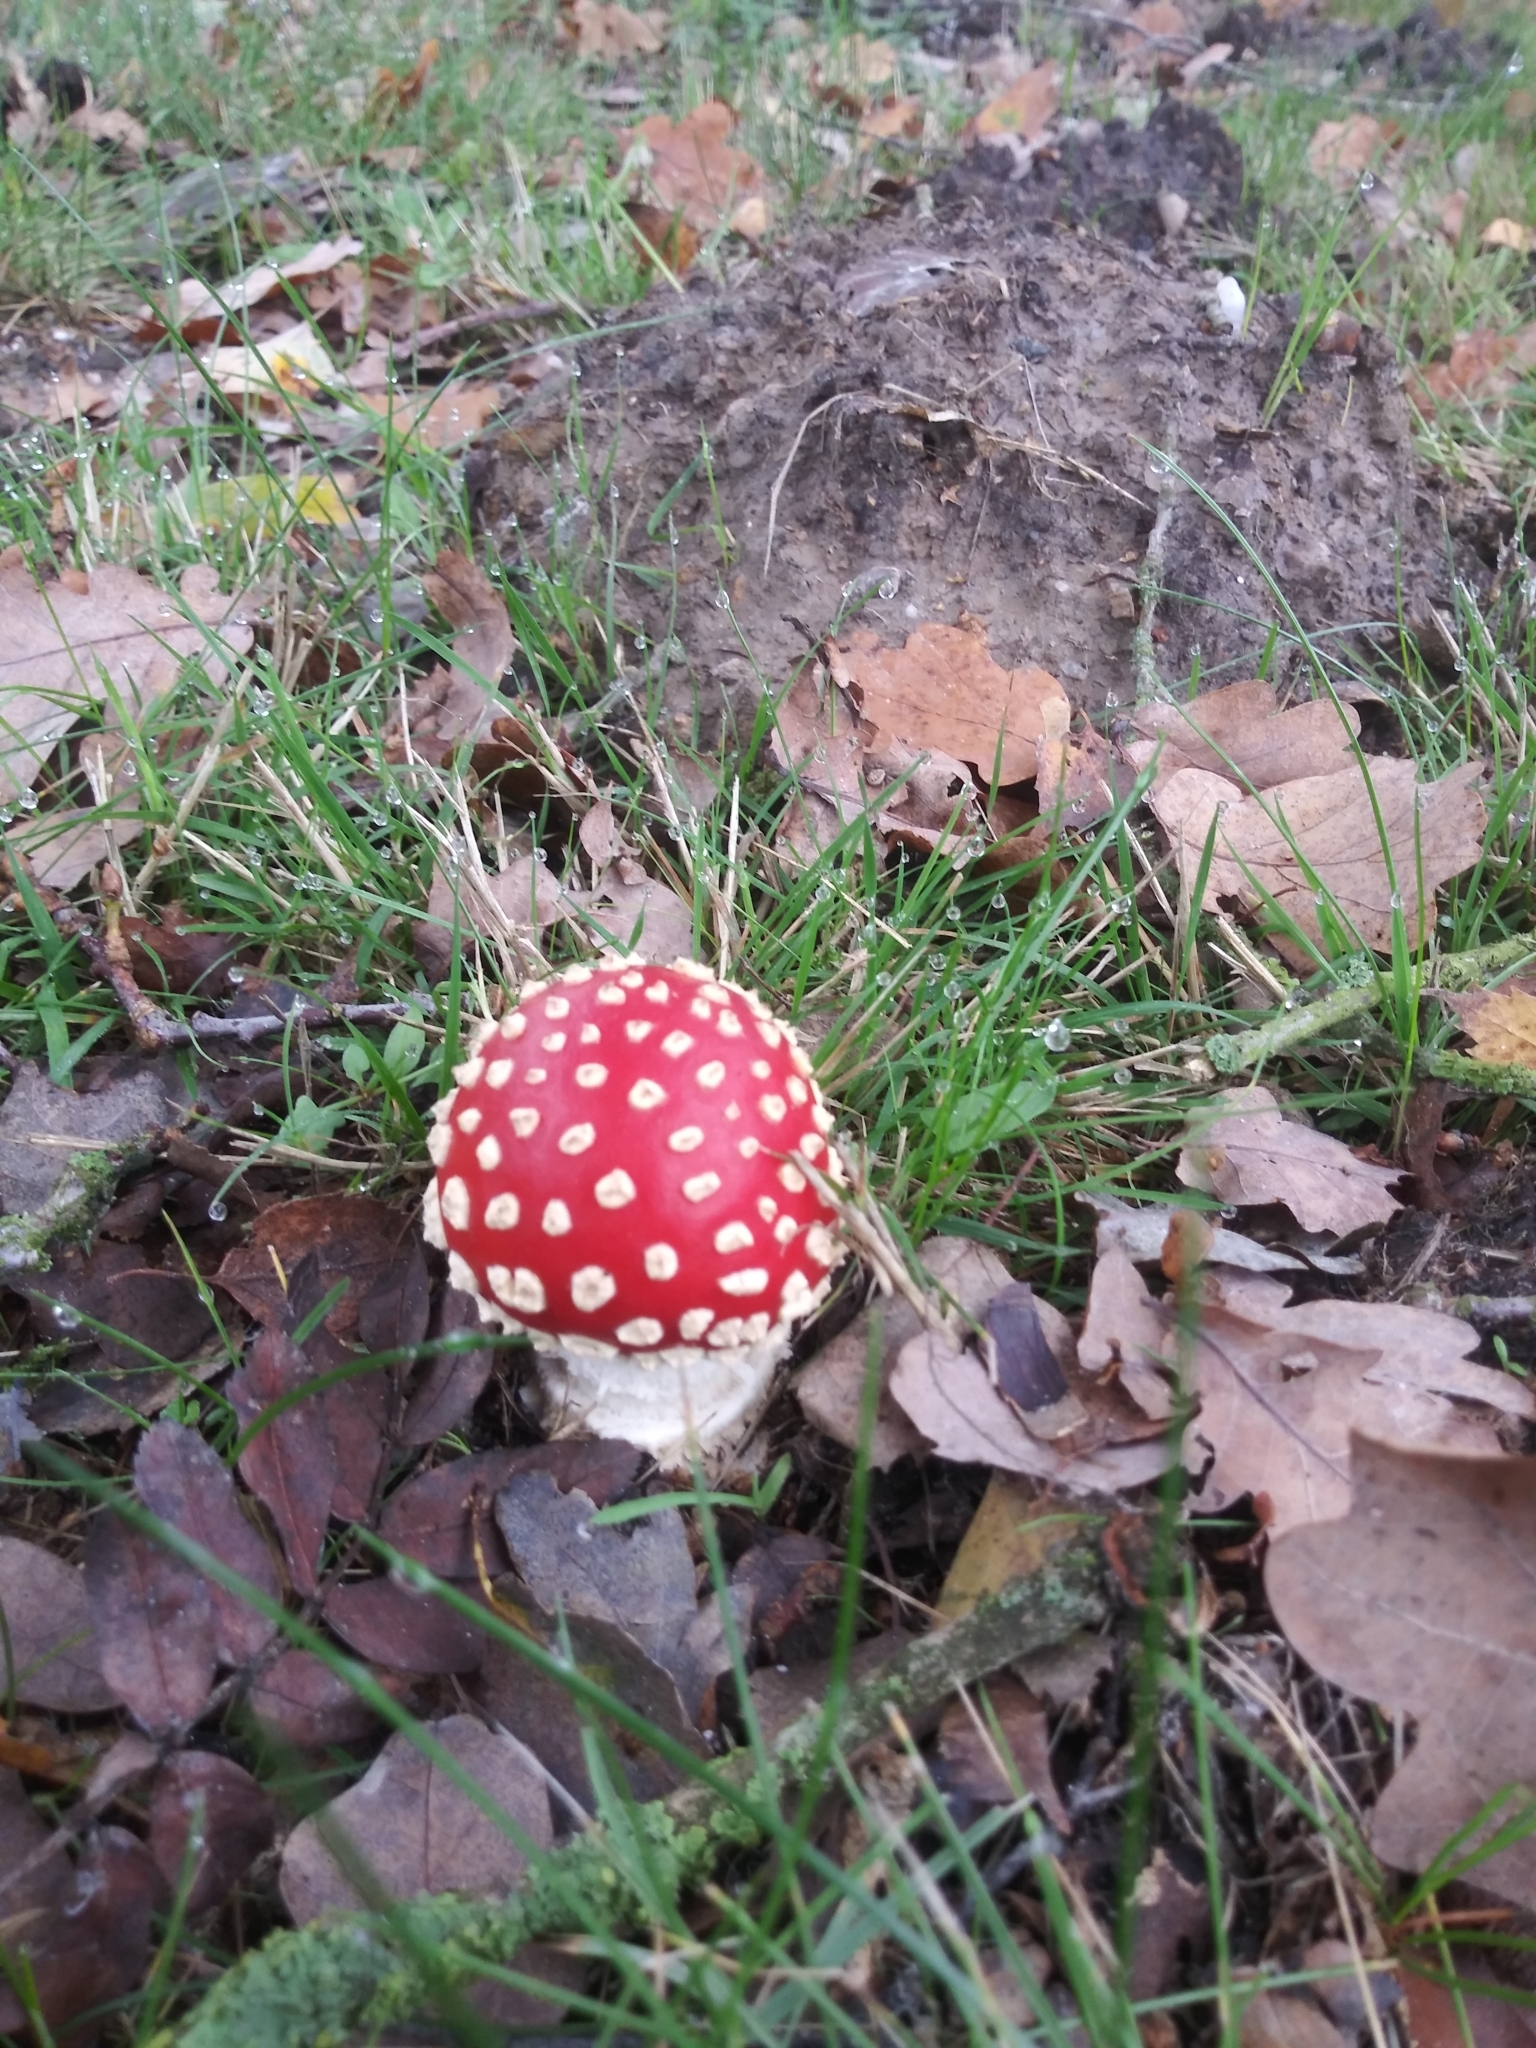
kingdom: Fungi
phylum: Basidiomycota
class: Agaricomycetes
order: Agaricales
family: Amanitaceae
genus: Amanita
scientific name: Amanita muscaria
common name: Fly agaric
